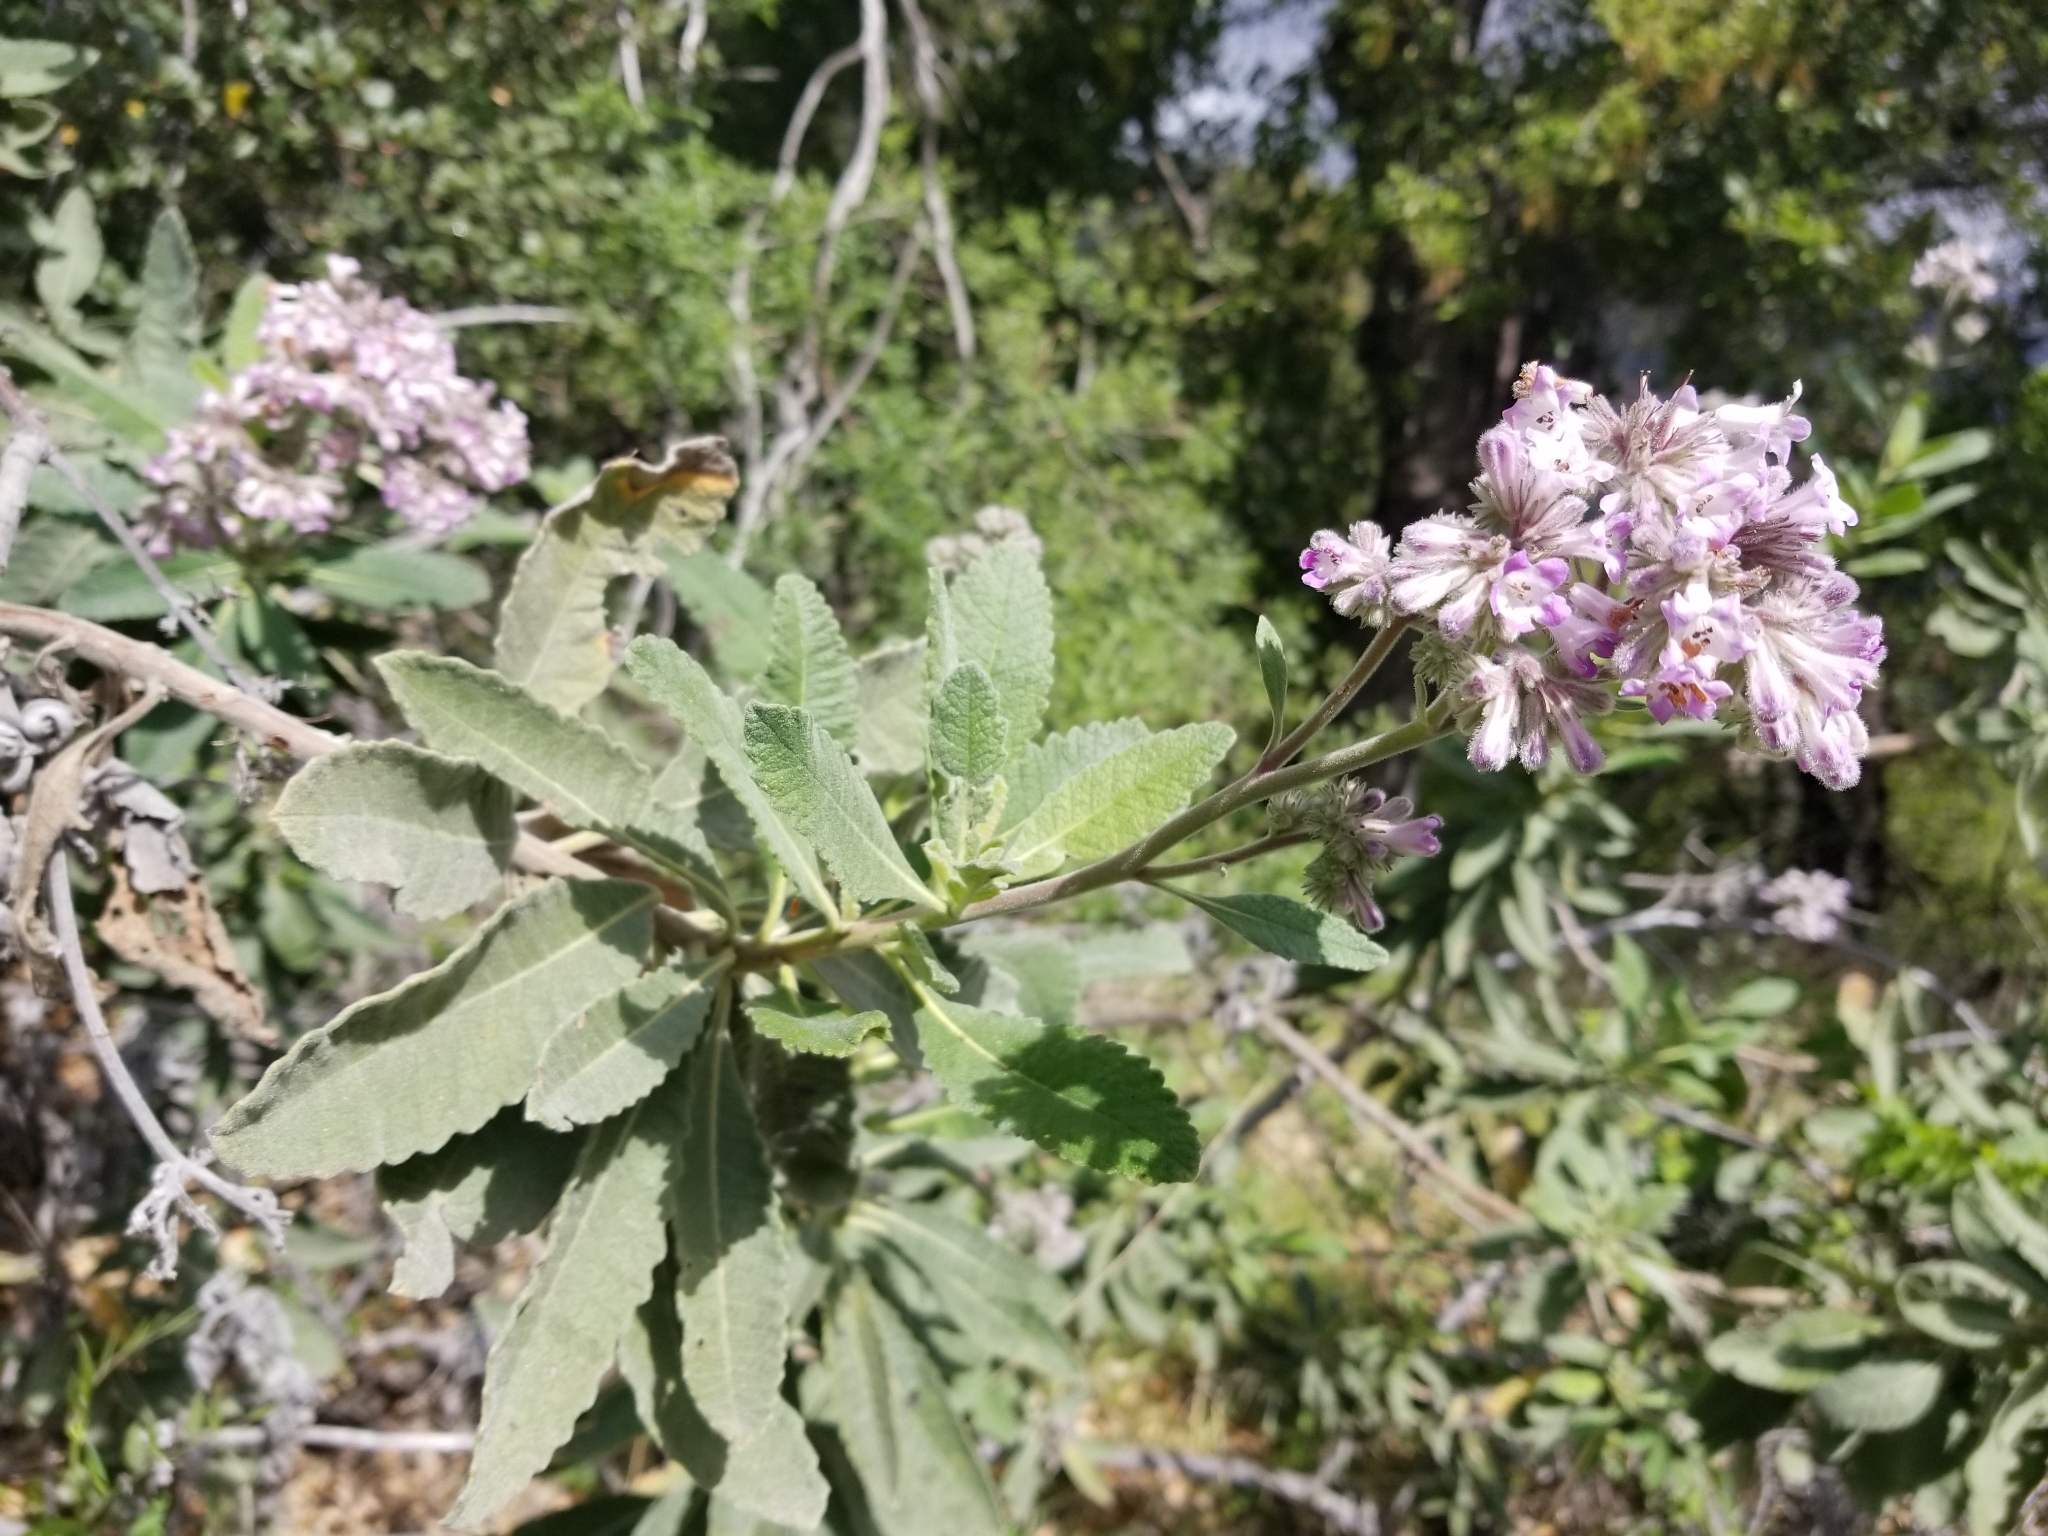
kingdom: Plantae
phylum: Tracheophyta
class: Magnoliopsida
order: Boraginales
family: Namaceae
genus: Eriodictyon
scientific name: Eriodictyon crassifolium
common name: Thick-leaf yerba-santa
